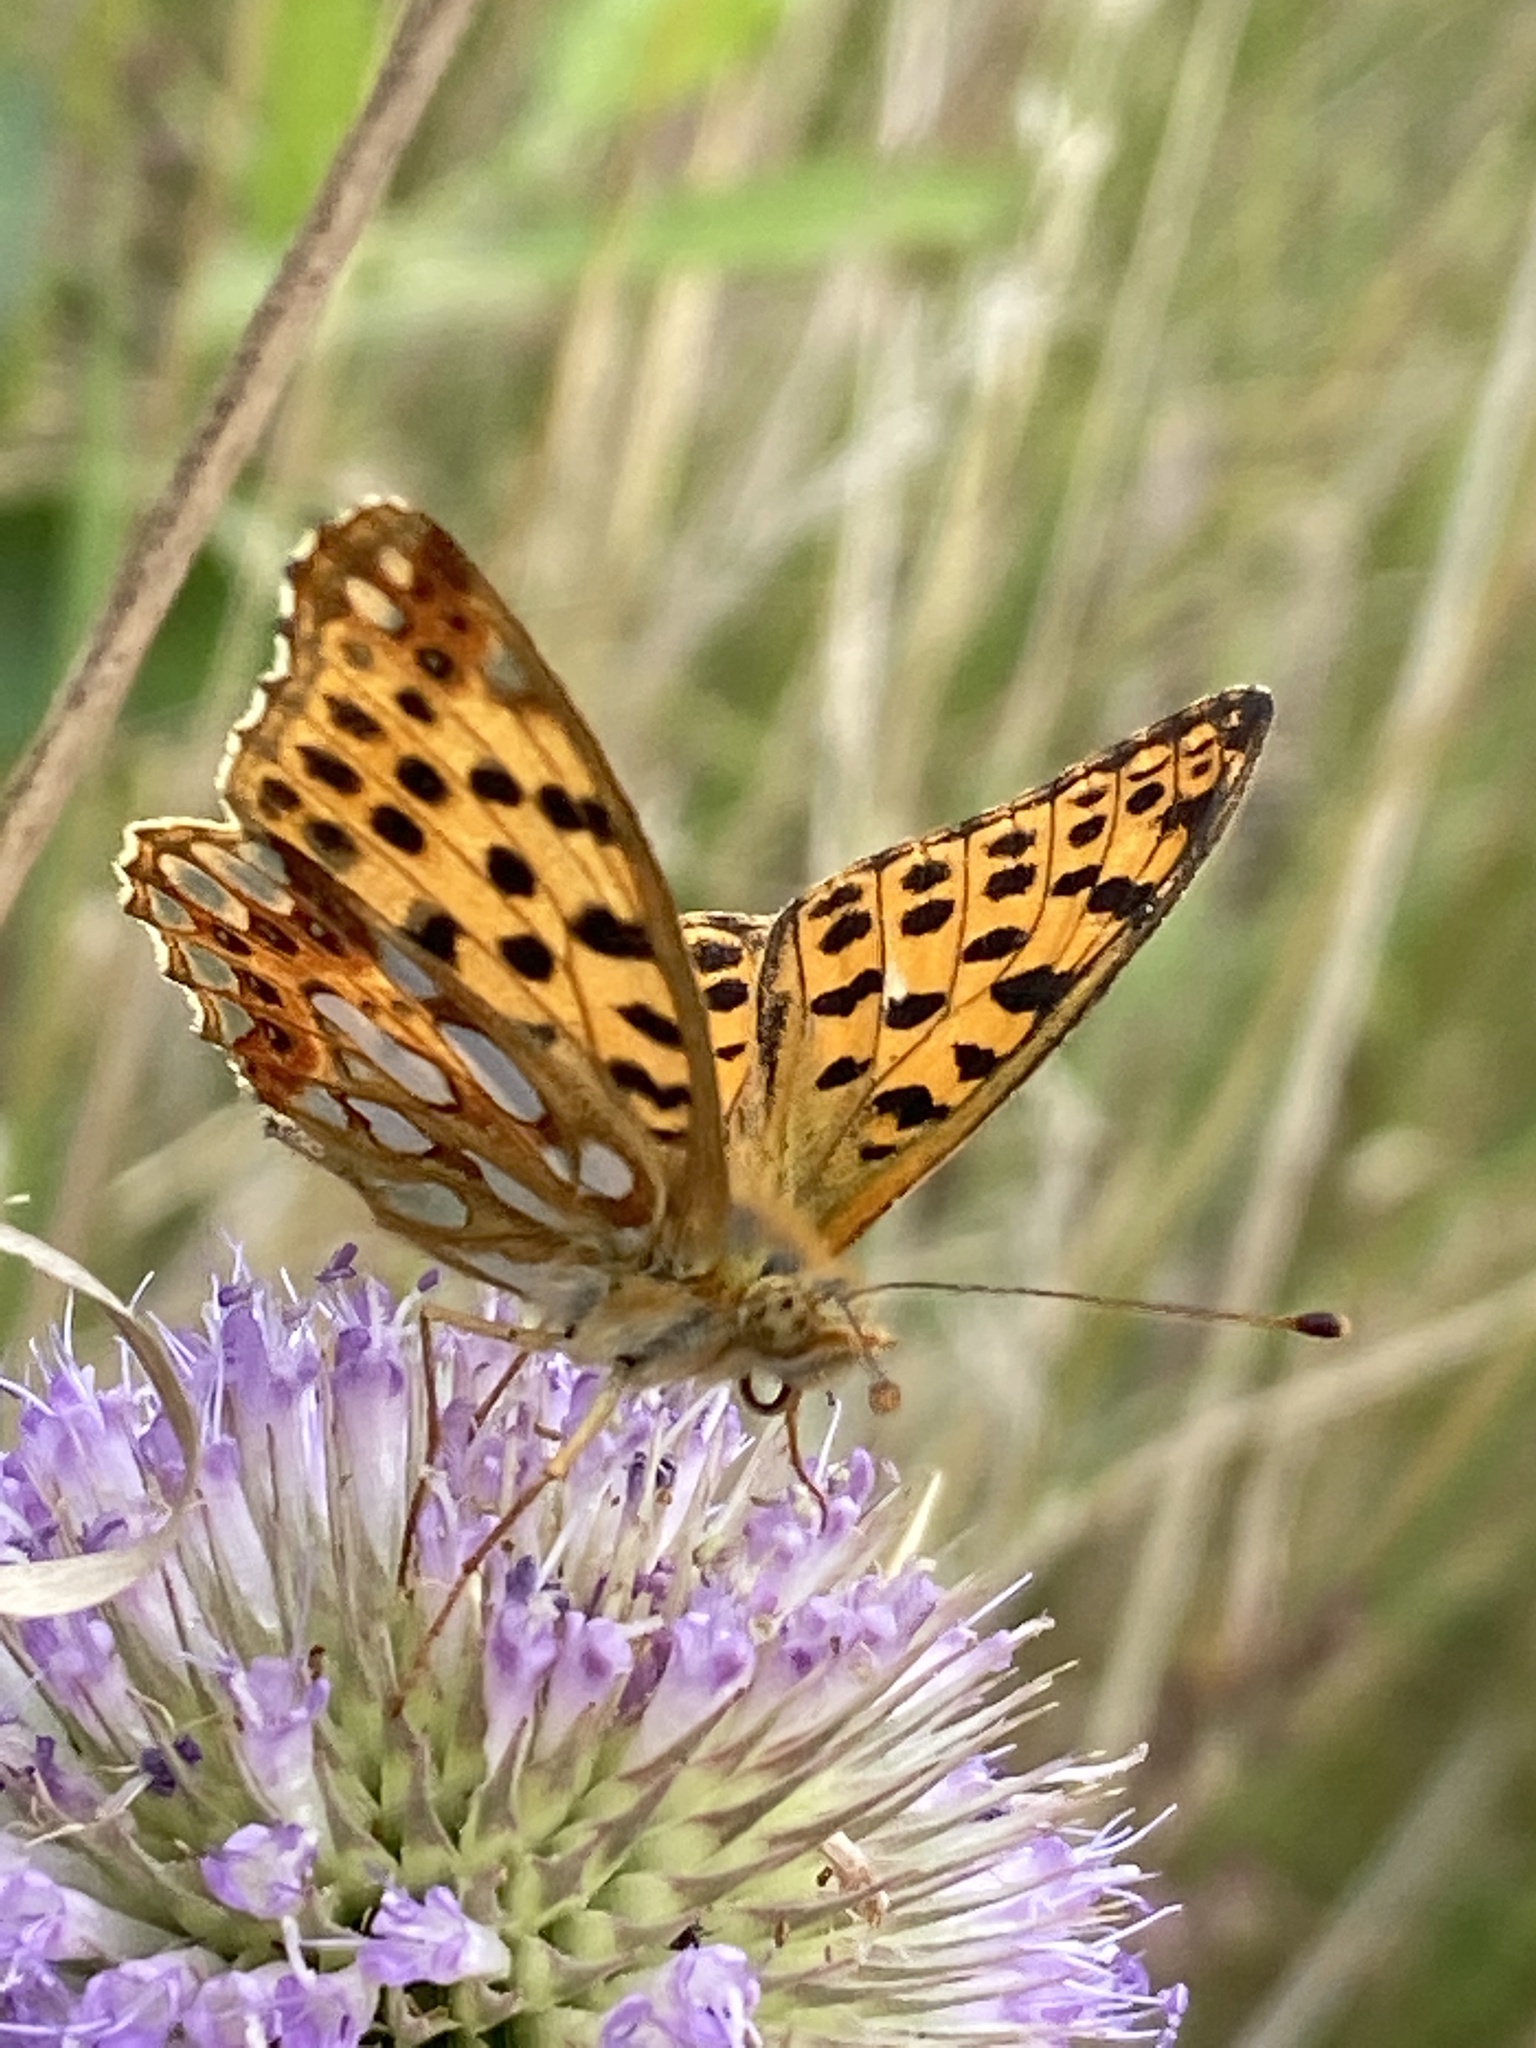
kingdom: Animalia
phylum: Arthropoda
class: Insecta
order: Lepidoptera
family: Nymphalidae
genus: Issoria
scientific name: Issoria lathonia
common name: Queen of spain fritillary
